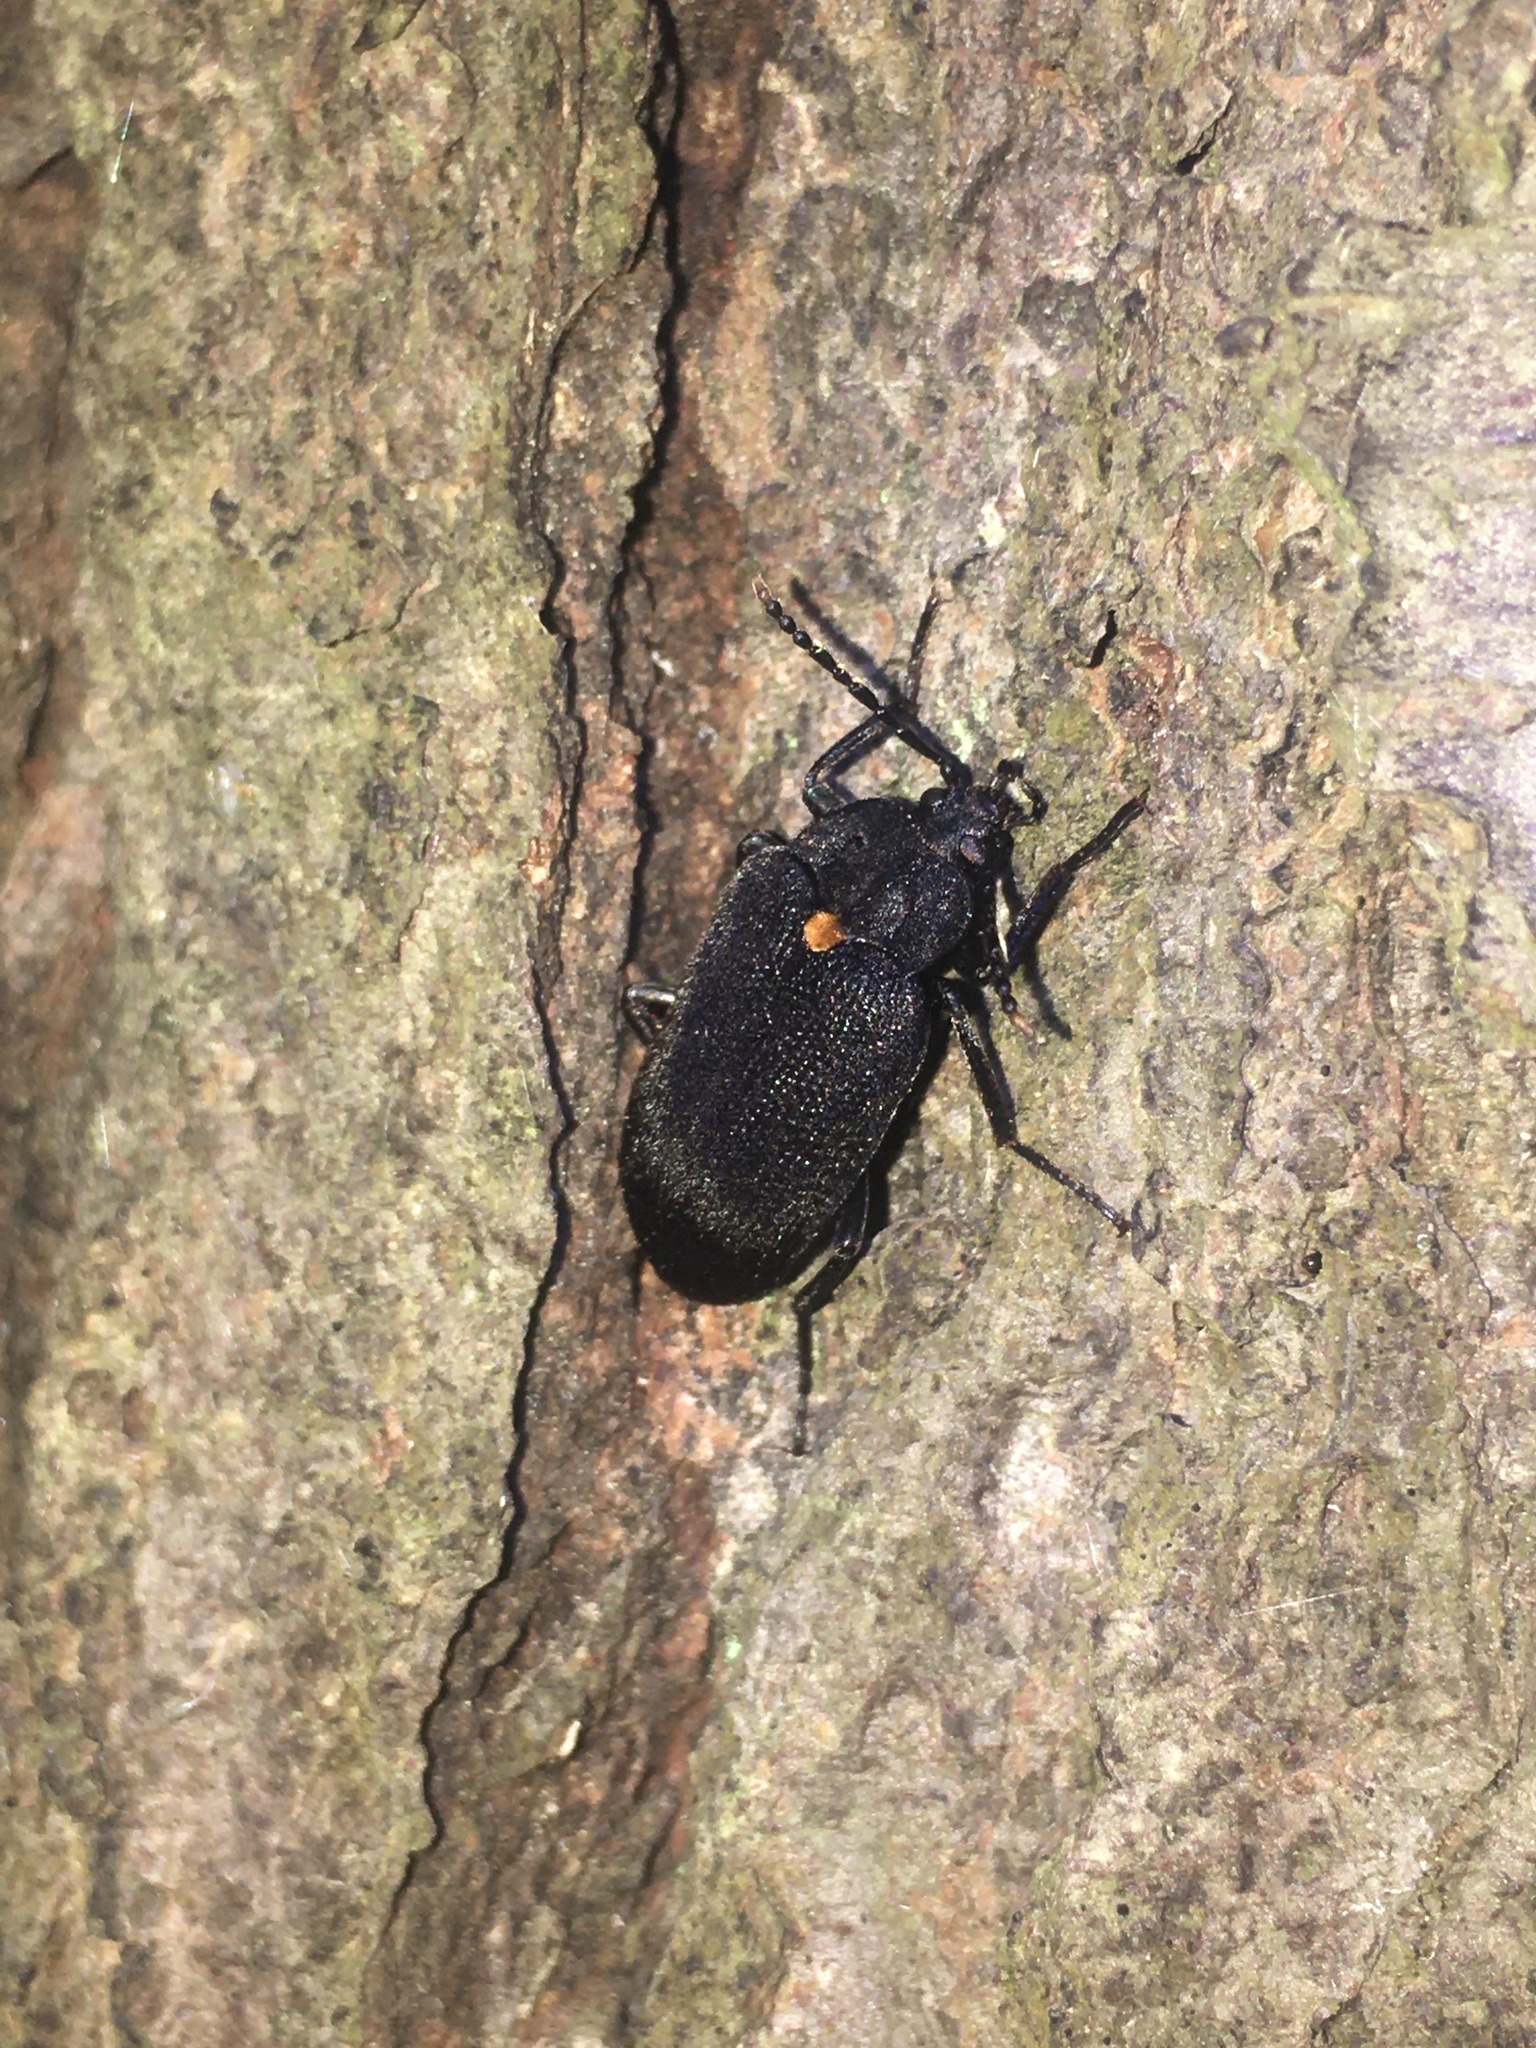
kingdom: Animalia
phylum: Arthropoda
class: Insecta
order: Coleoptera
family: Tetratomidae
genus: Penthe
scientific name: Penthe obliquata
